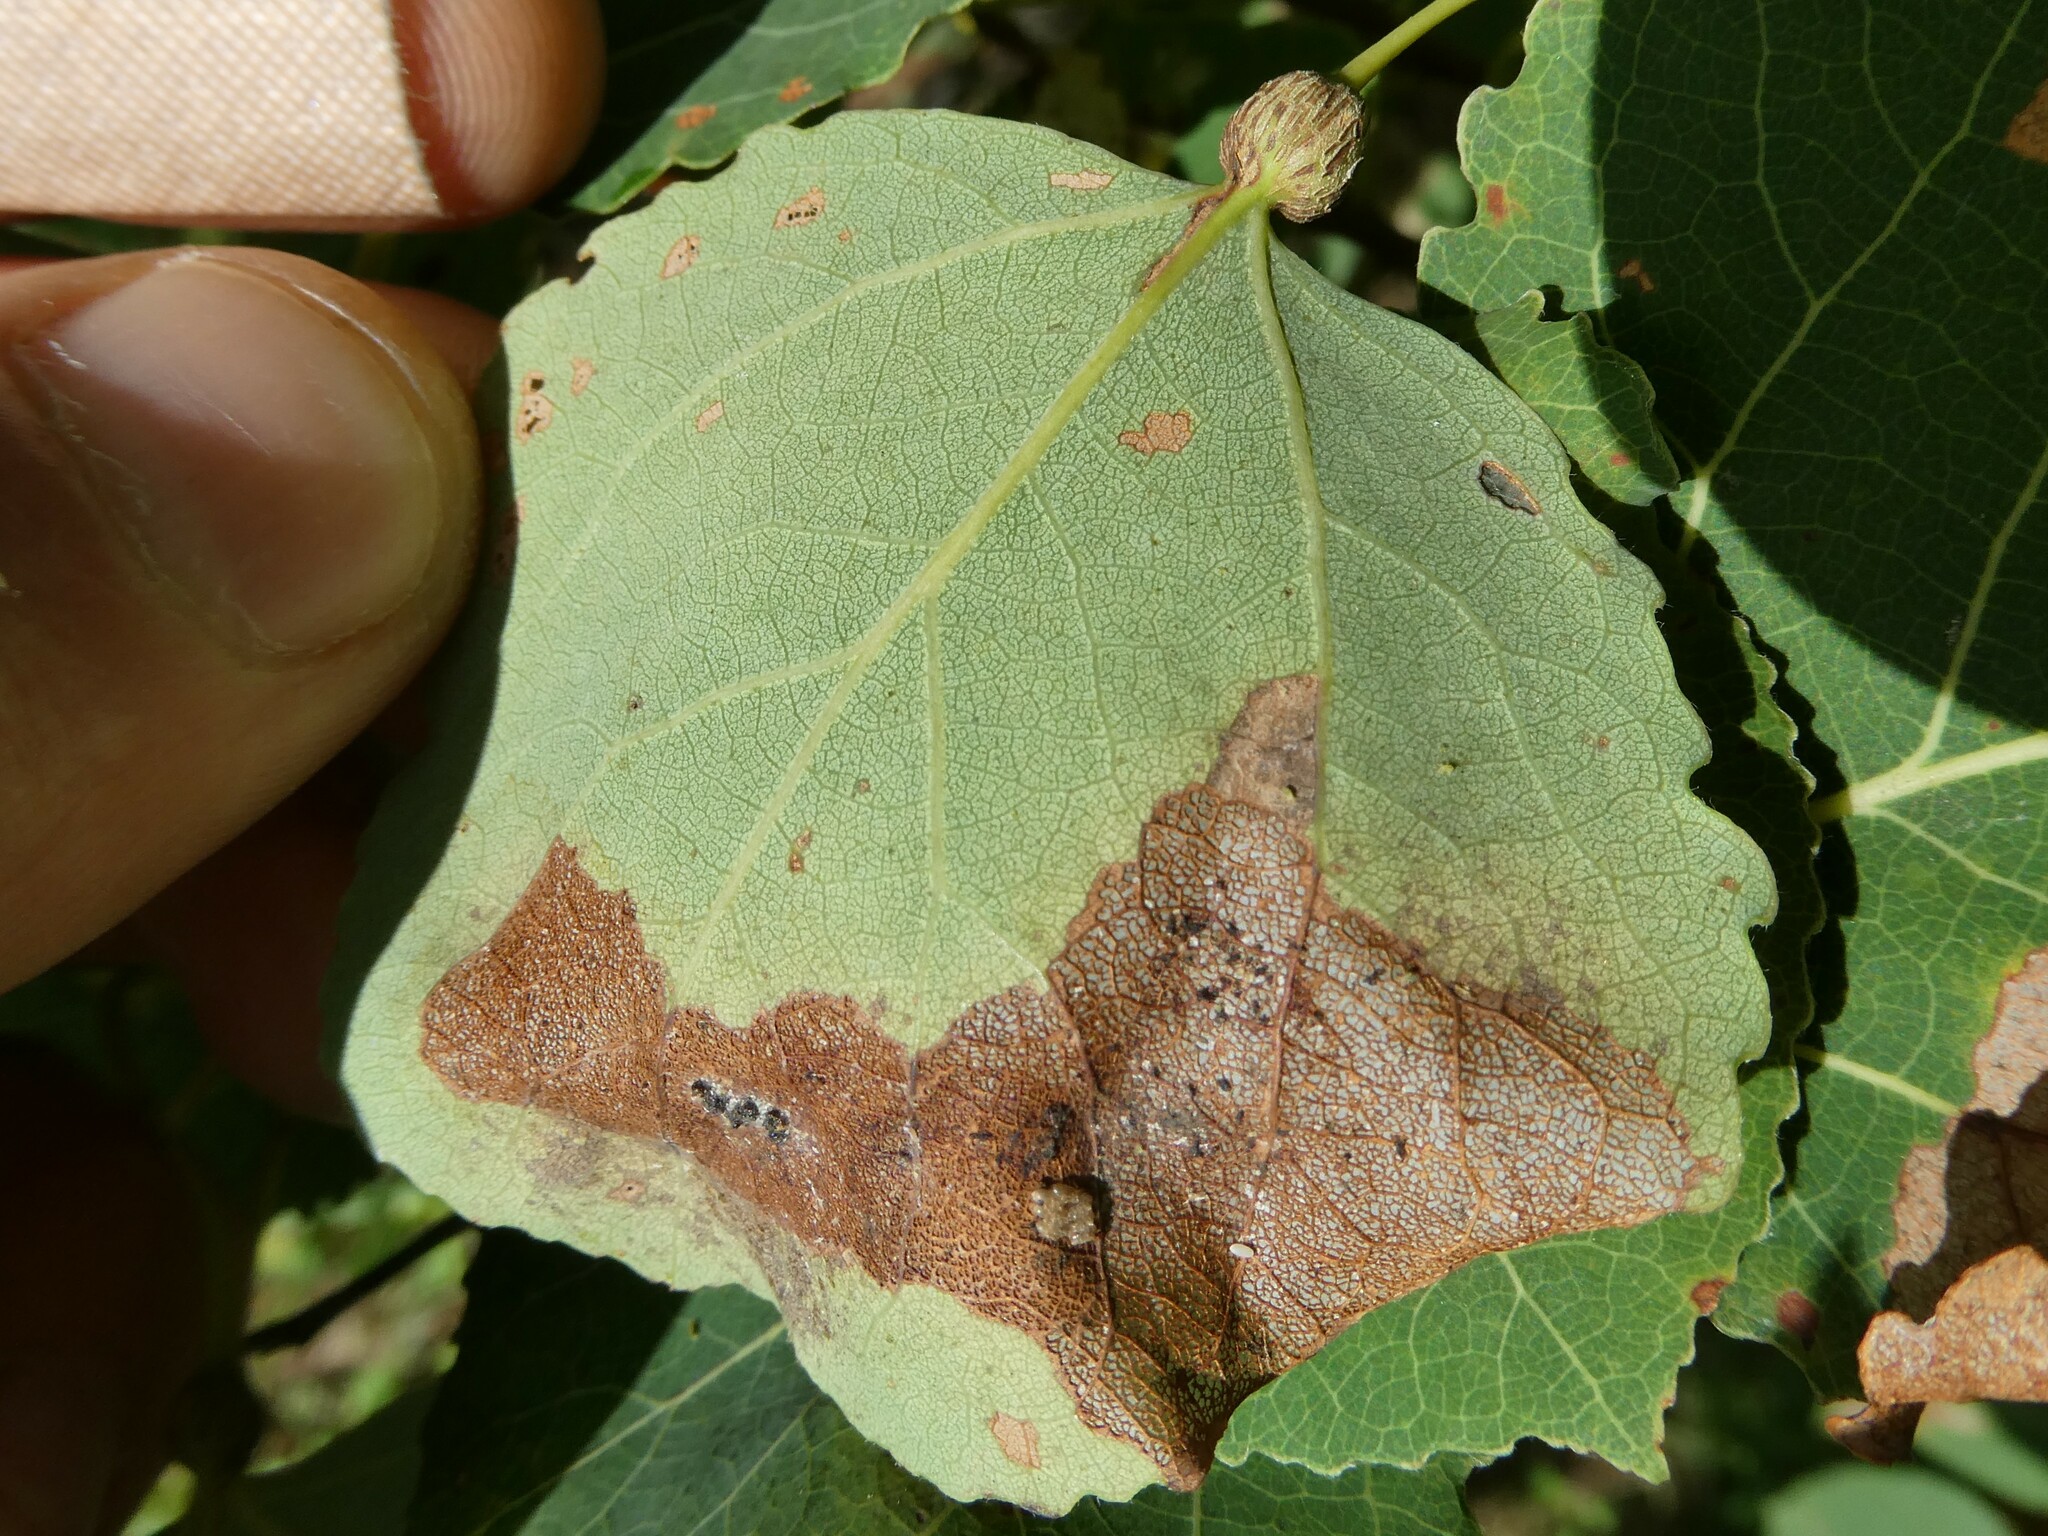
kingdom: Animalia
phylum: Arthropoda
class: Insecta
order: Lepidoptera
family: Nepticulidae
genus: Ectoedemia
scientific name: Ectoedemia populella
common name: Aspen petiole gall moth
